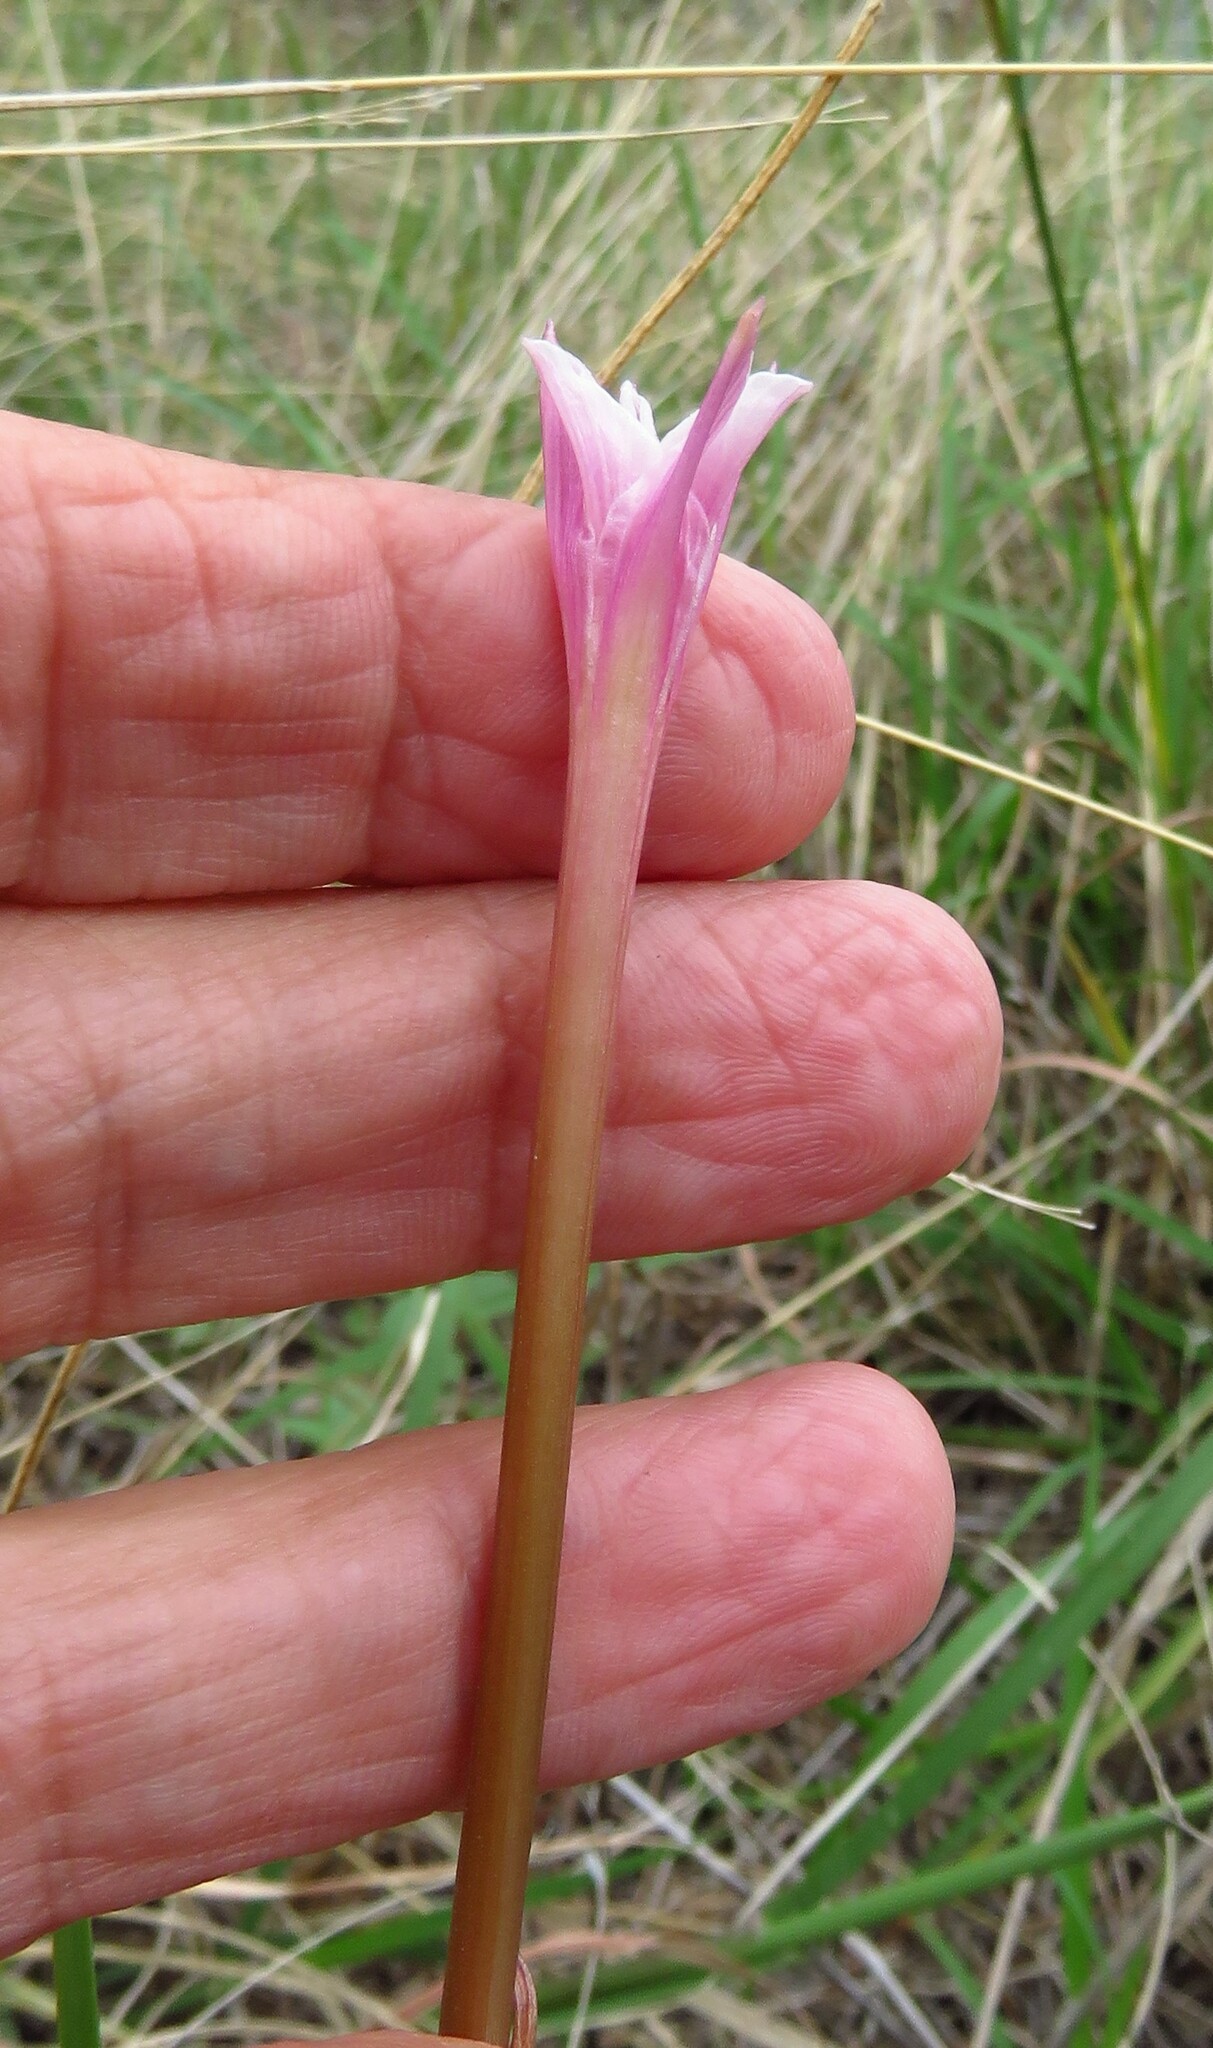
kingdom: Plantae
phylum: Tracheophyta
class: Liliopsida
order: Asparagales
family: Amaryllidaceae
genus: Zephyranthes
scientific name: Zephyranthes chlorosolen
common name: Evening rain-lily
